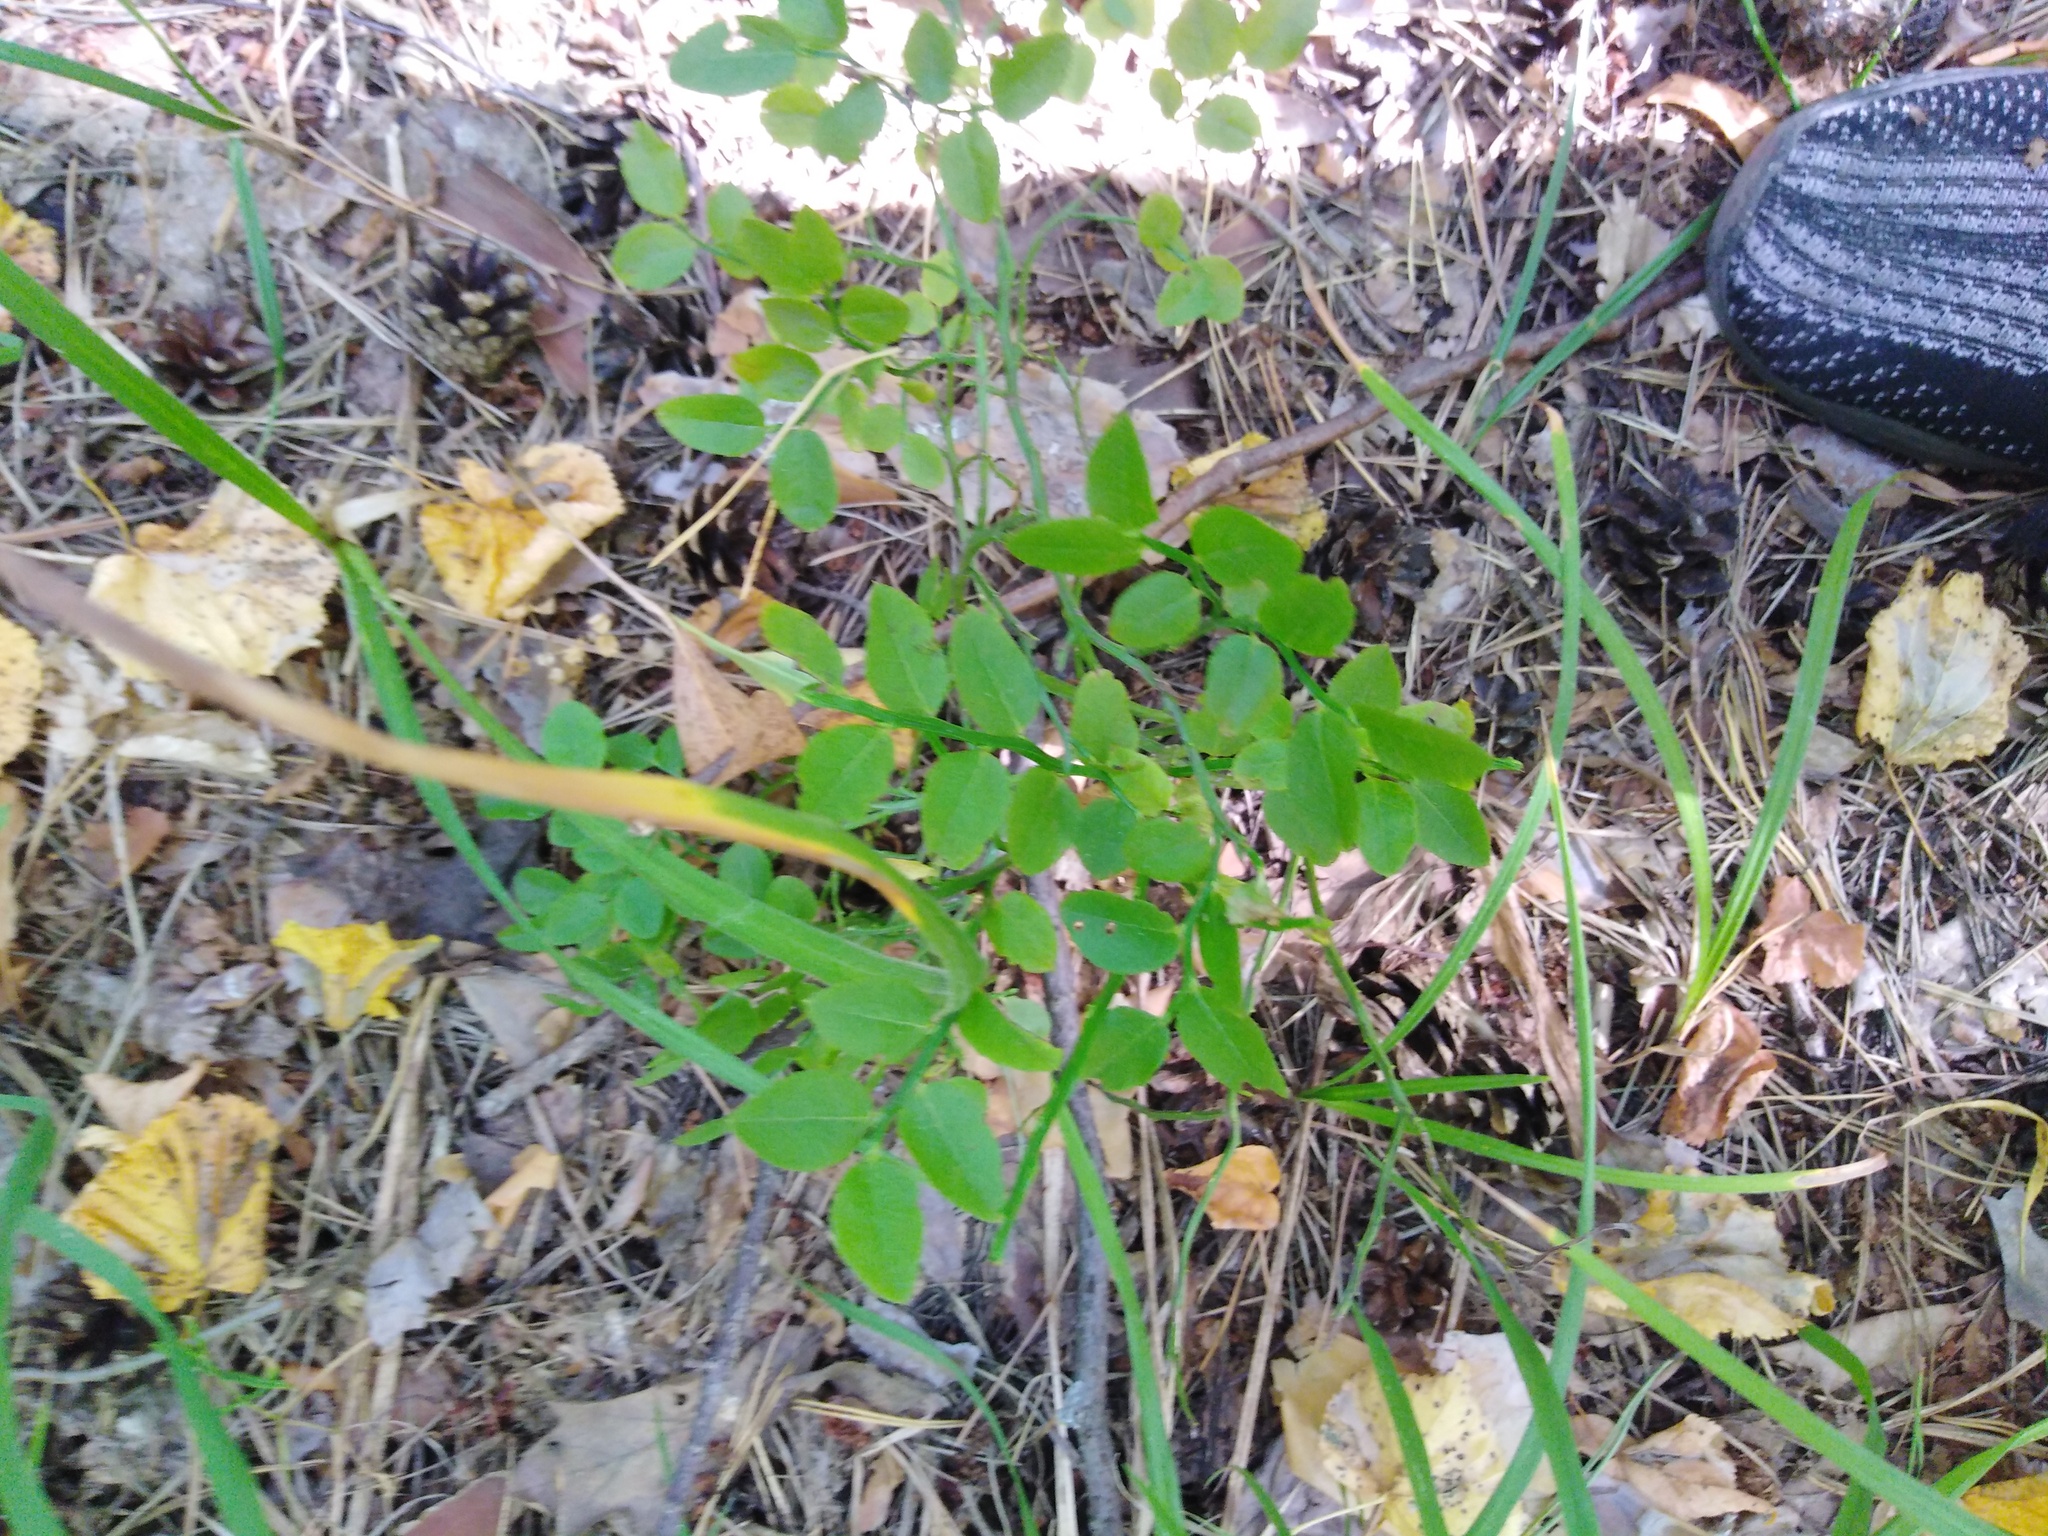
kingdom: Plantae
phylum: Tracheophyta
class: Magnoliopsida
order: Ericales
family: Ericaceae
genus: Vaccinium
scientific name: Vaccinium myrtillus
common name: Bilberry
